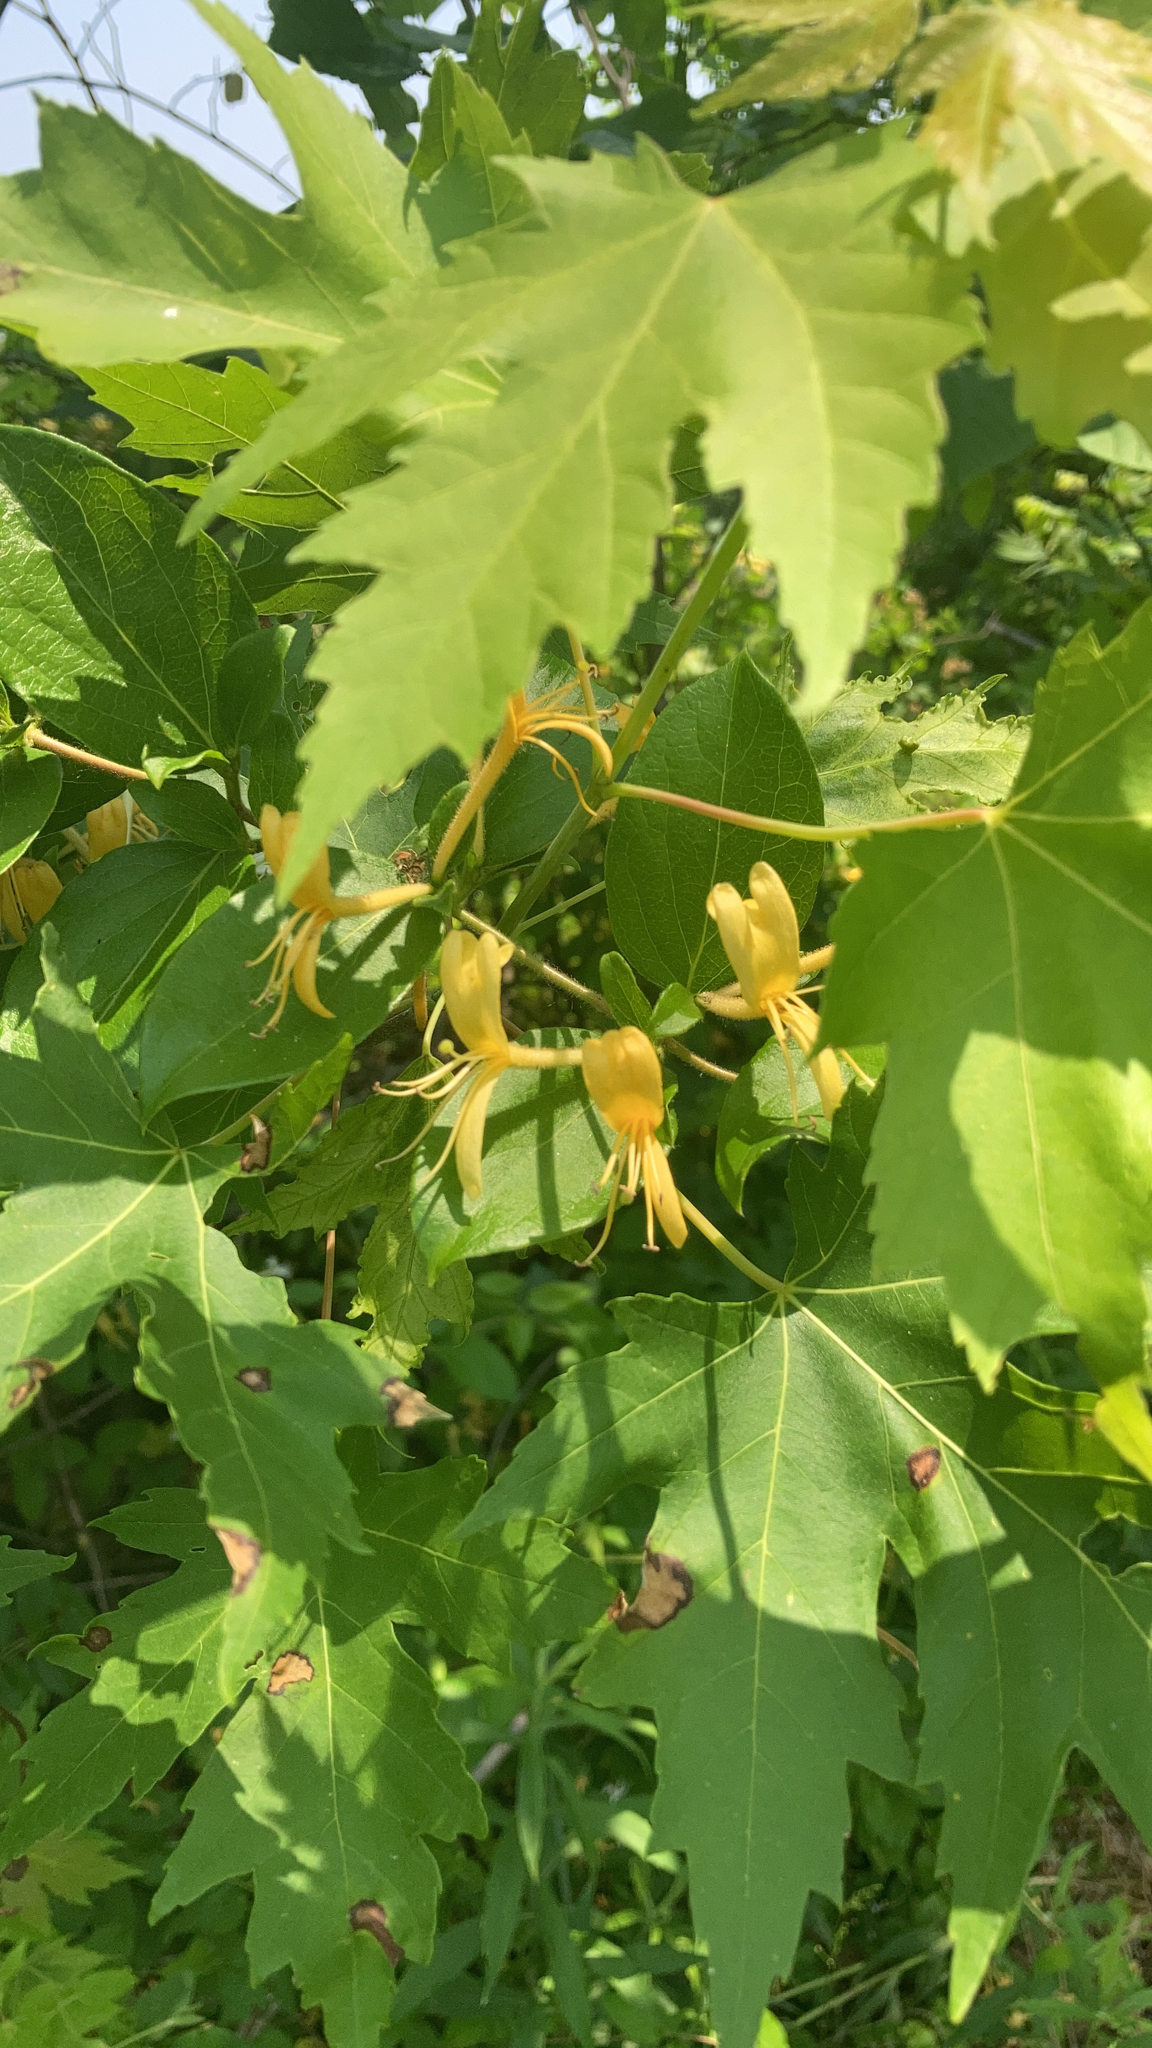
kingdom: Plantae
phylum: Tracheophyta
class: Magnoliopsida
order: Dipsacales
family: Caprifoliaceae
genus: Lonicera
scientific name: Lonicera japonica
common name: Japanese honeysuckle
